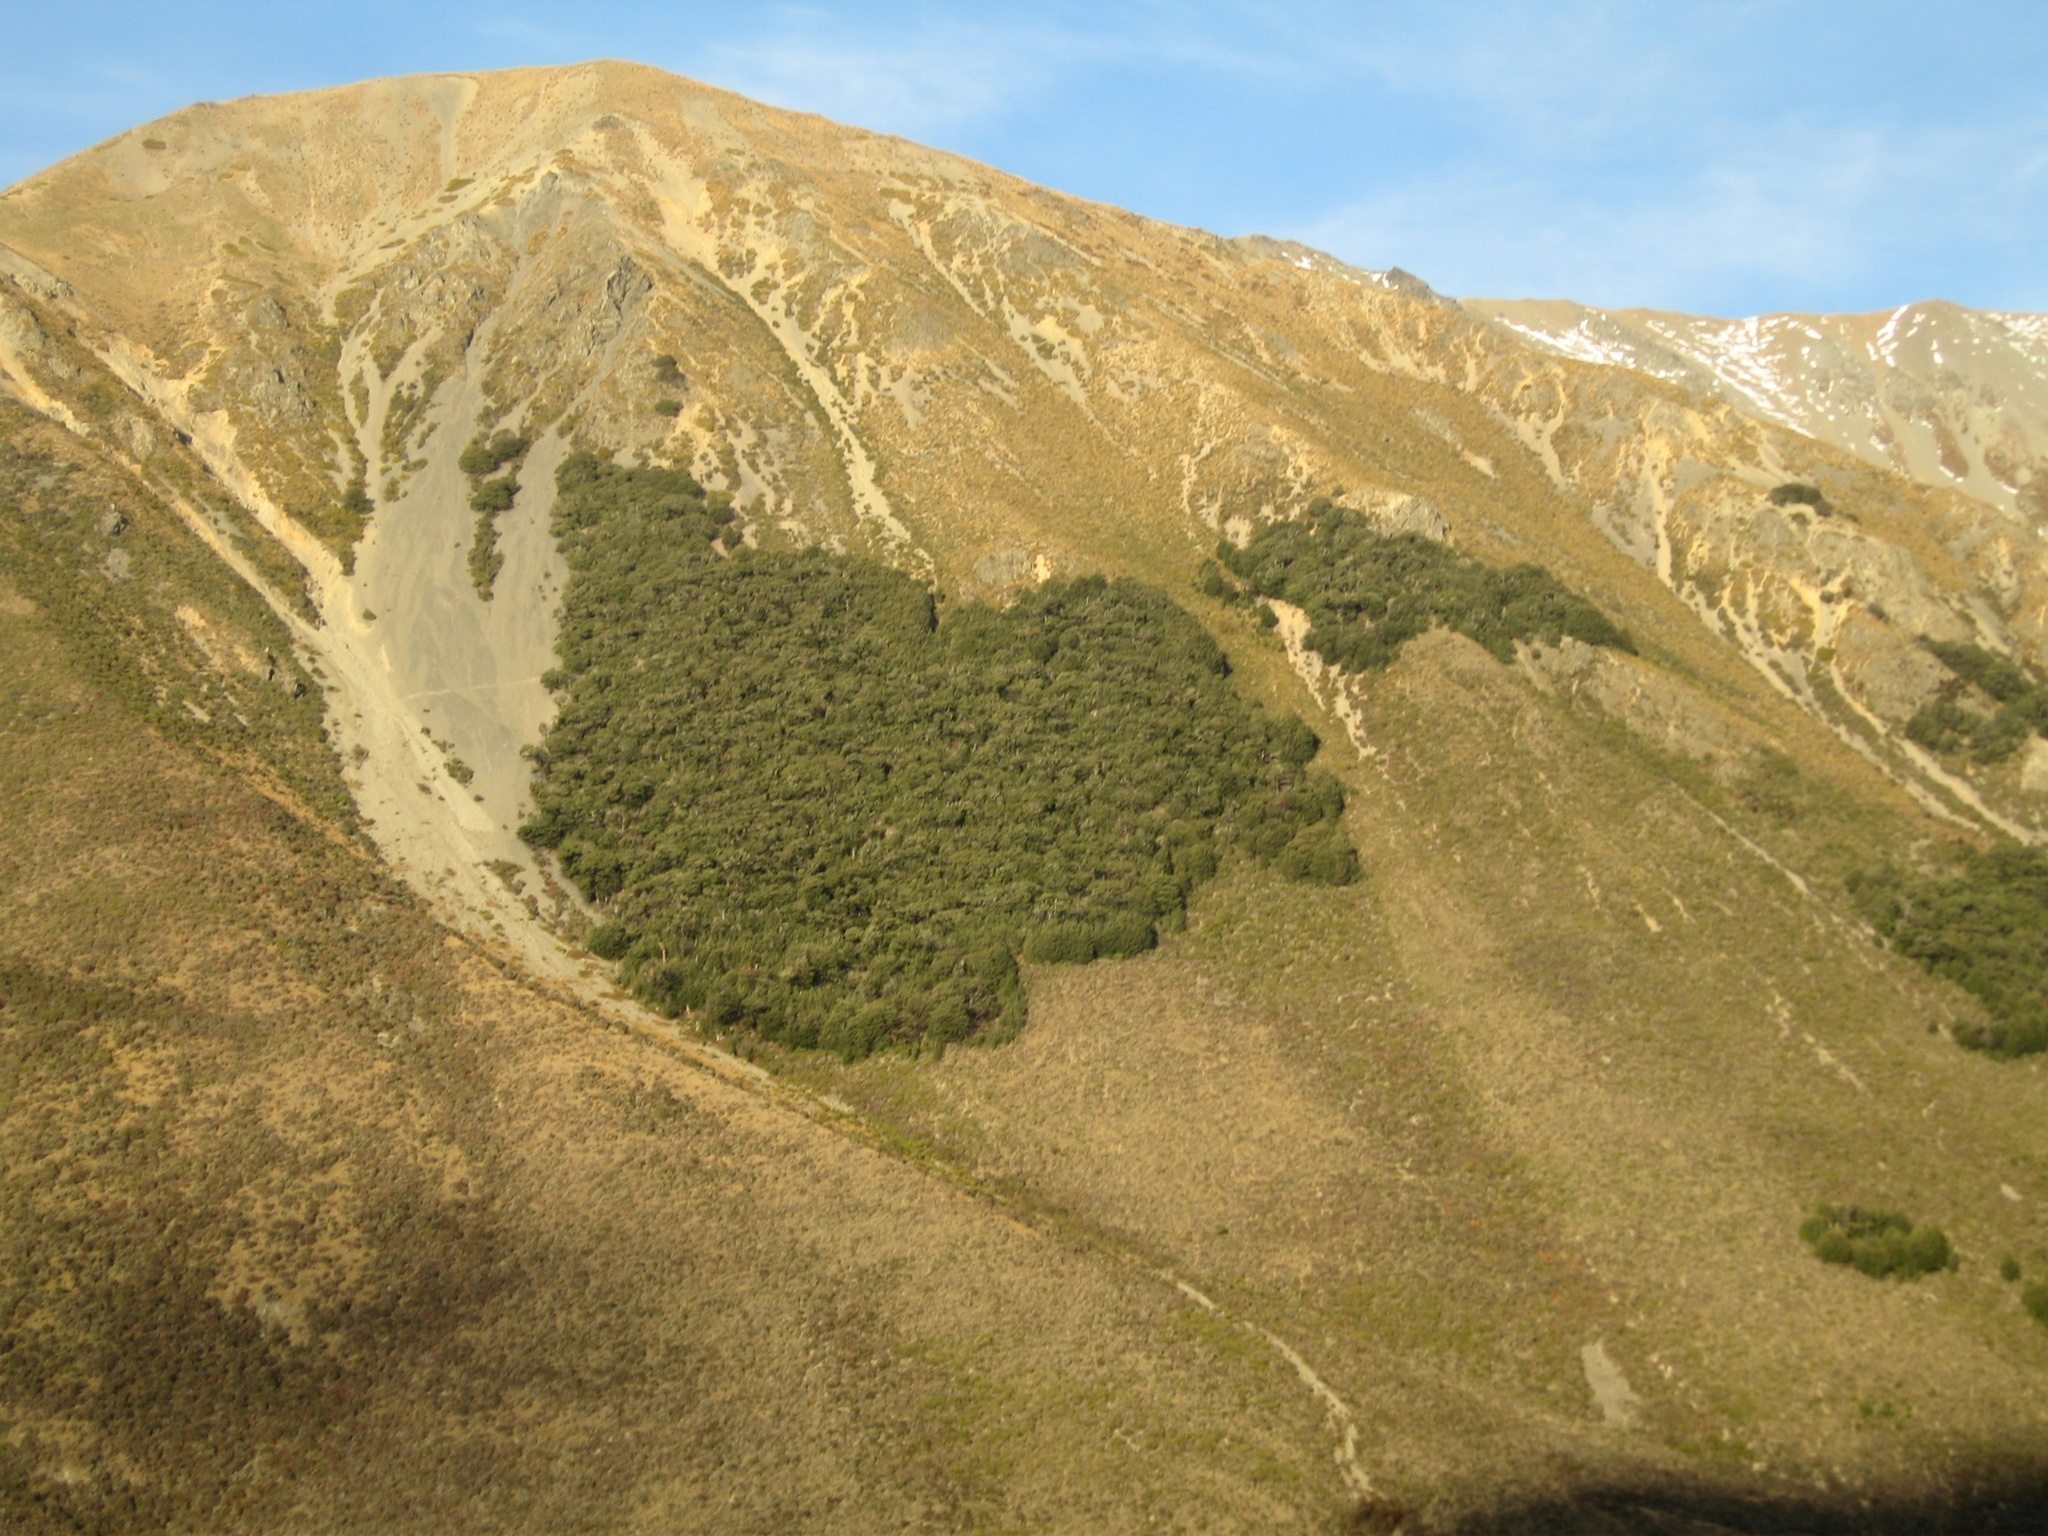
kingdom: Plantae
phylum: Tracheophyta
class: Magnoliopsida
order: Fagales
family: Nothofagaceae
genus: Nothofagus
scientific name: Nothofagus cliffortioides
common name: Mountain beech
